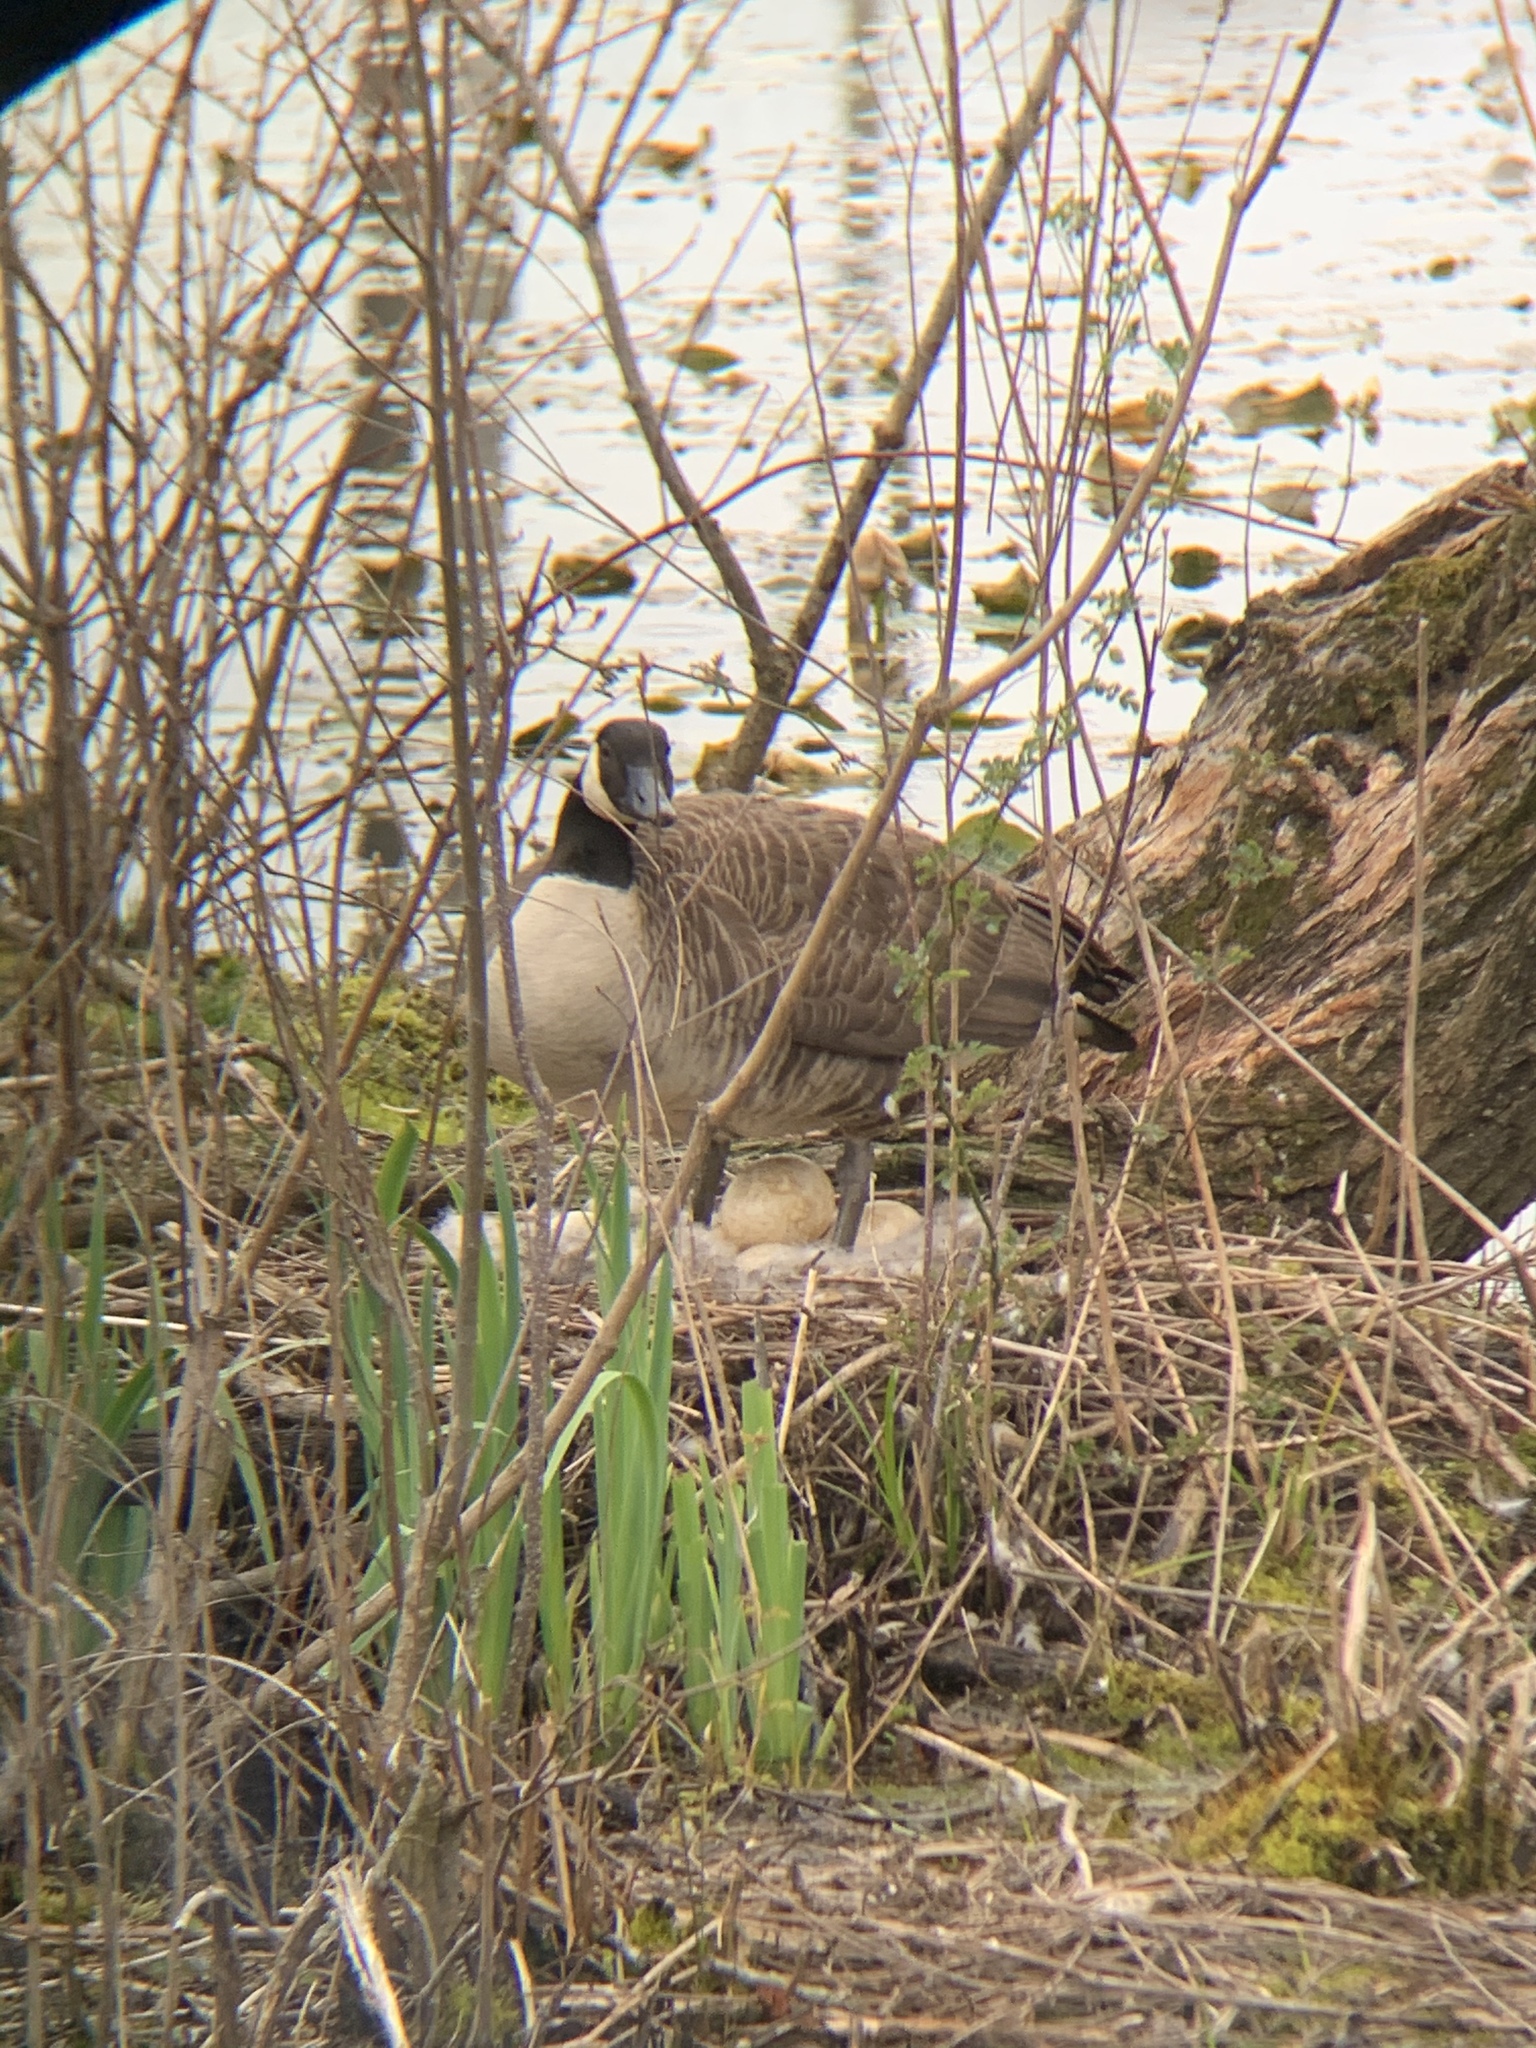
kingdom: Animalia
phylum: Chordata
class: Aves
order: Anseriformes
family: Anatidae
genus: Branta
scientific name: Branta canadensis
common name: Canada goose
